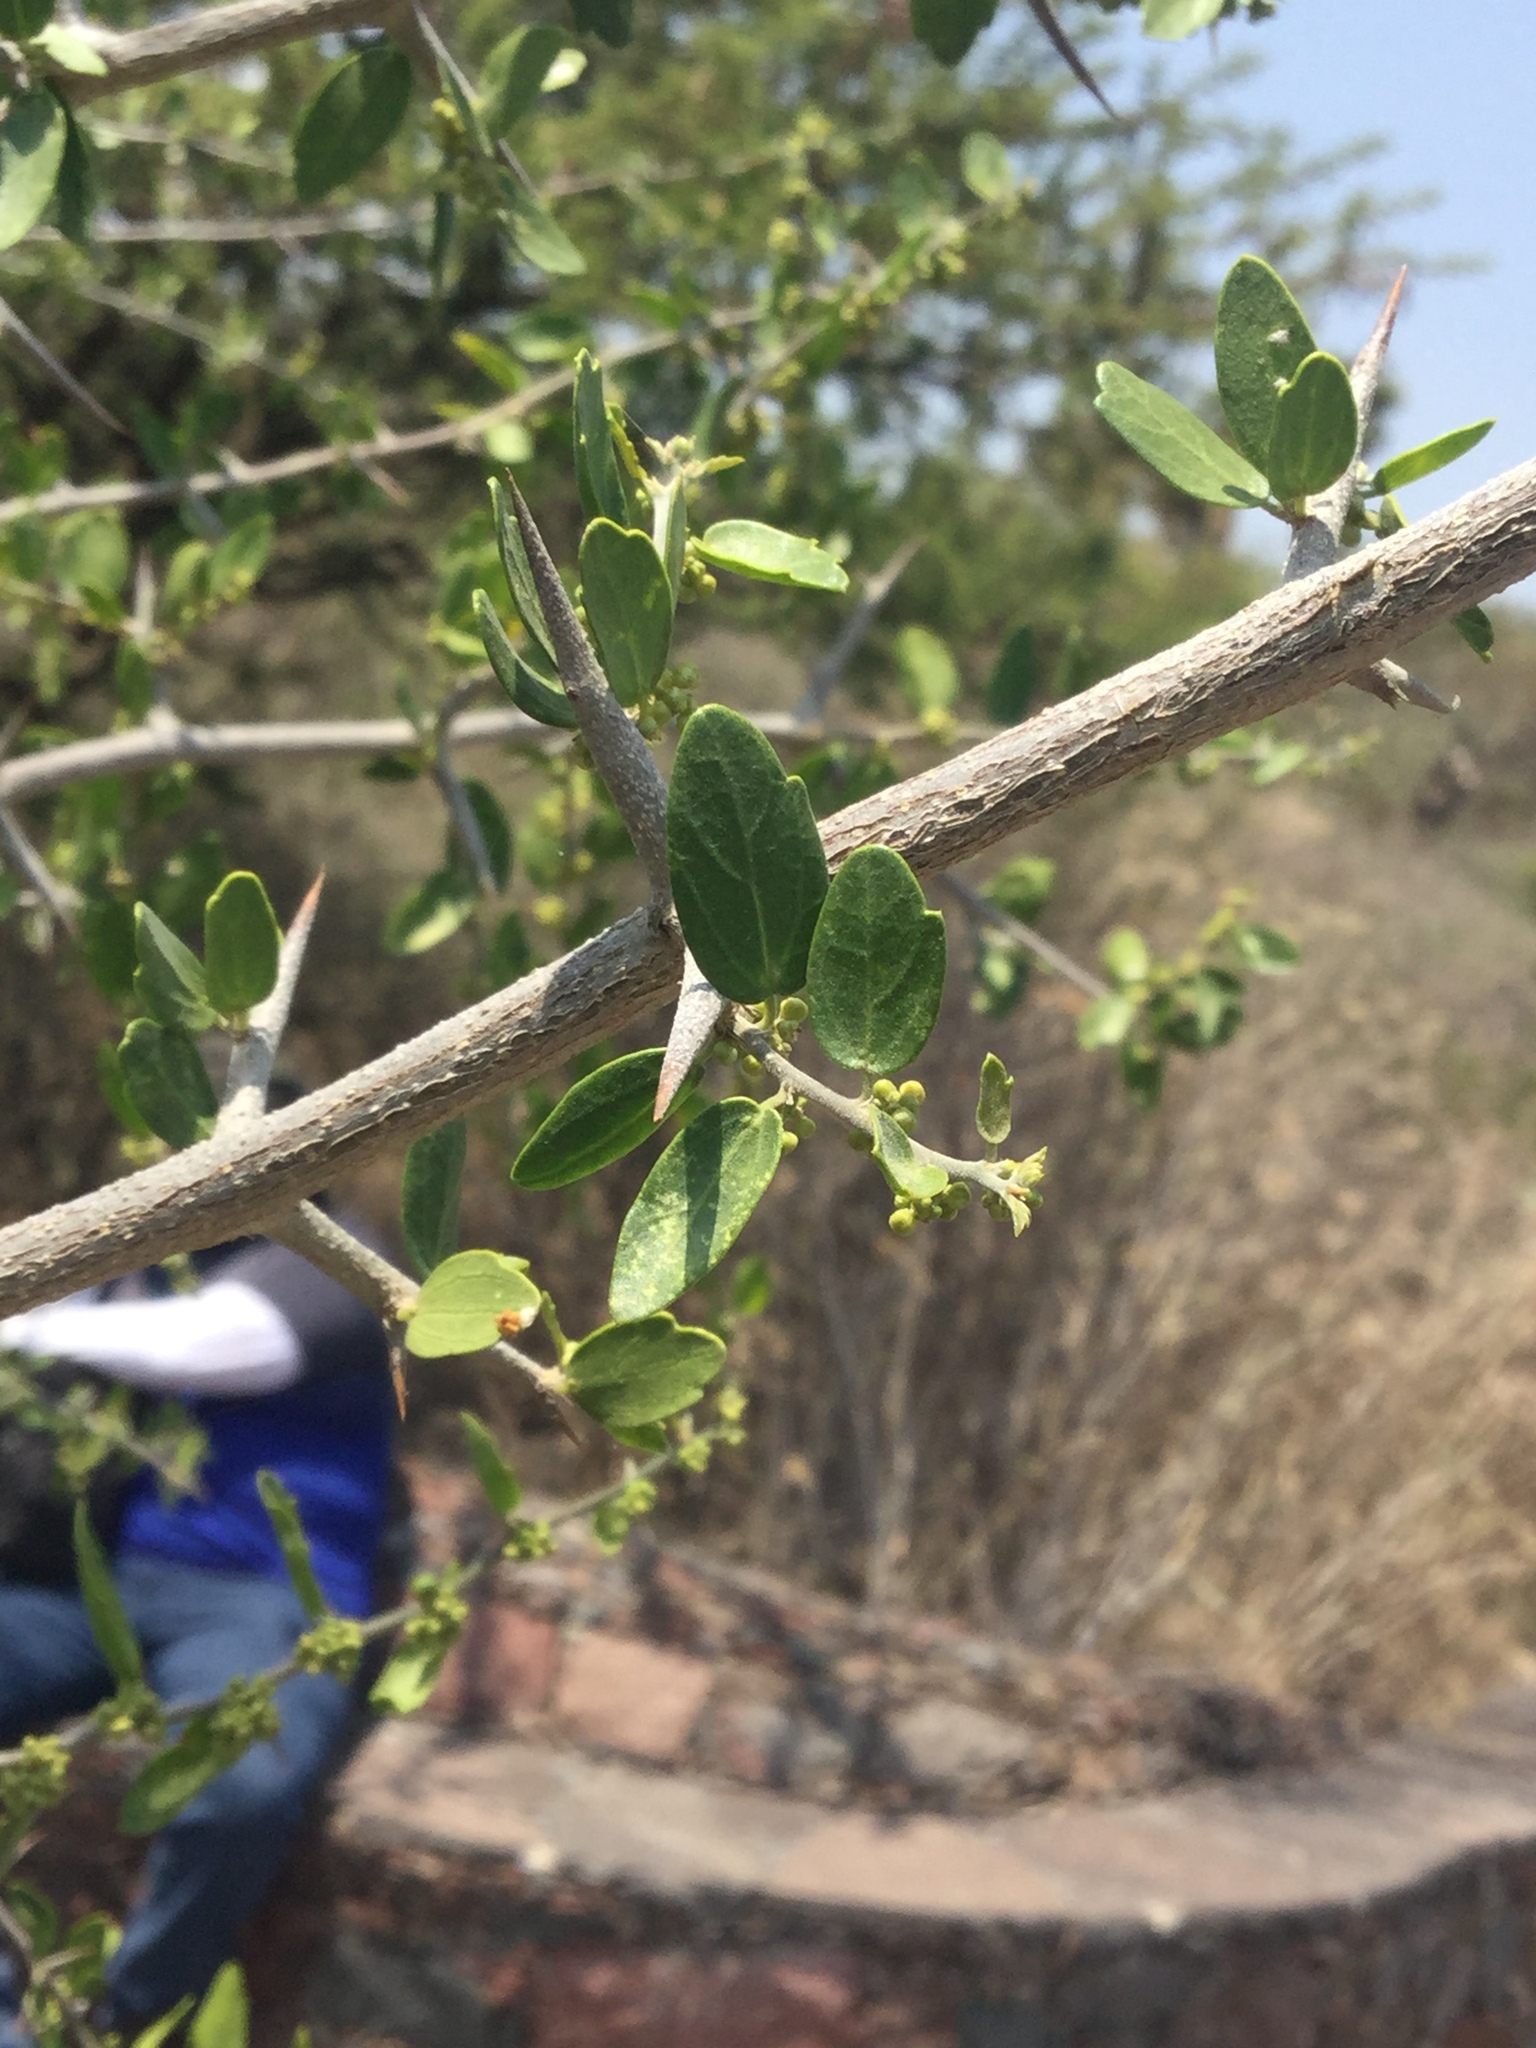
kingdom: Plantae
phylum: Tracheophyta
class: Magnoliopsida
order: Rosales
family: Cannabaceae
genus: Celtis
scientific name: Celtis pallida
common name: Desert hackberry
